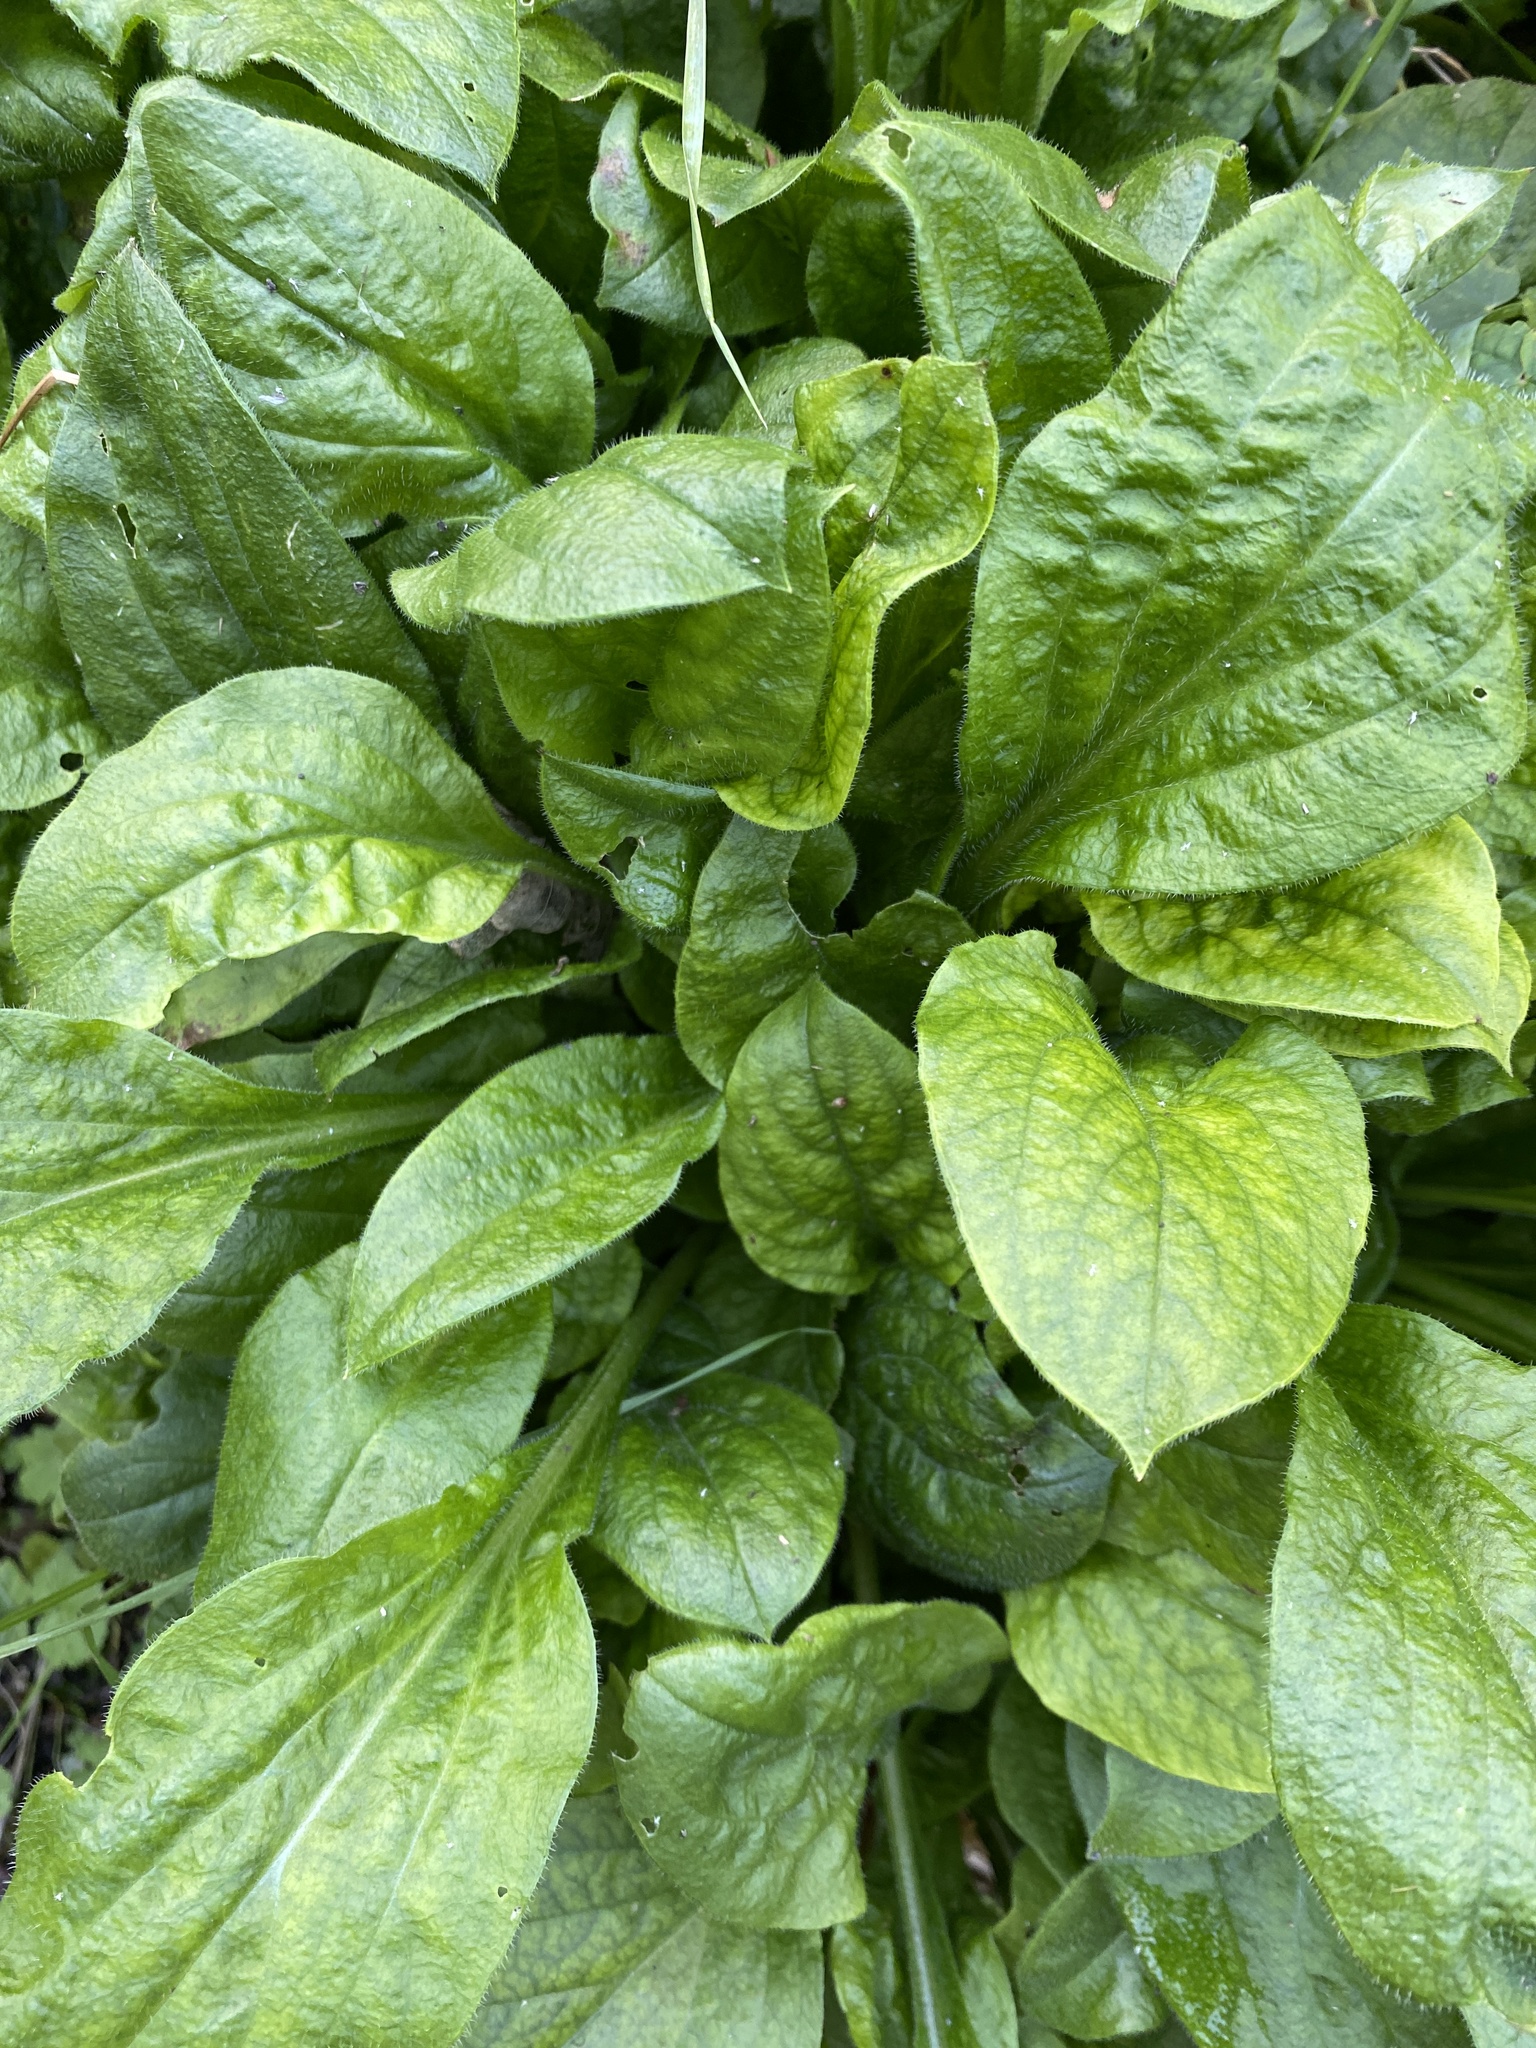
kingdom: Plantae
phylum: Tracheophyta
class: Magnoliopsida
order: Lamiales
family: Plantaginaceae
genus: Plantago
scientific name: Plantago major
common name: Common plantain
